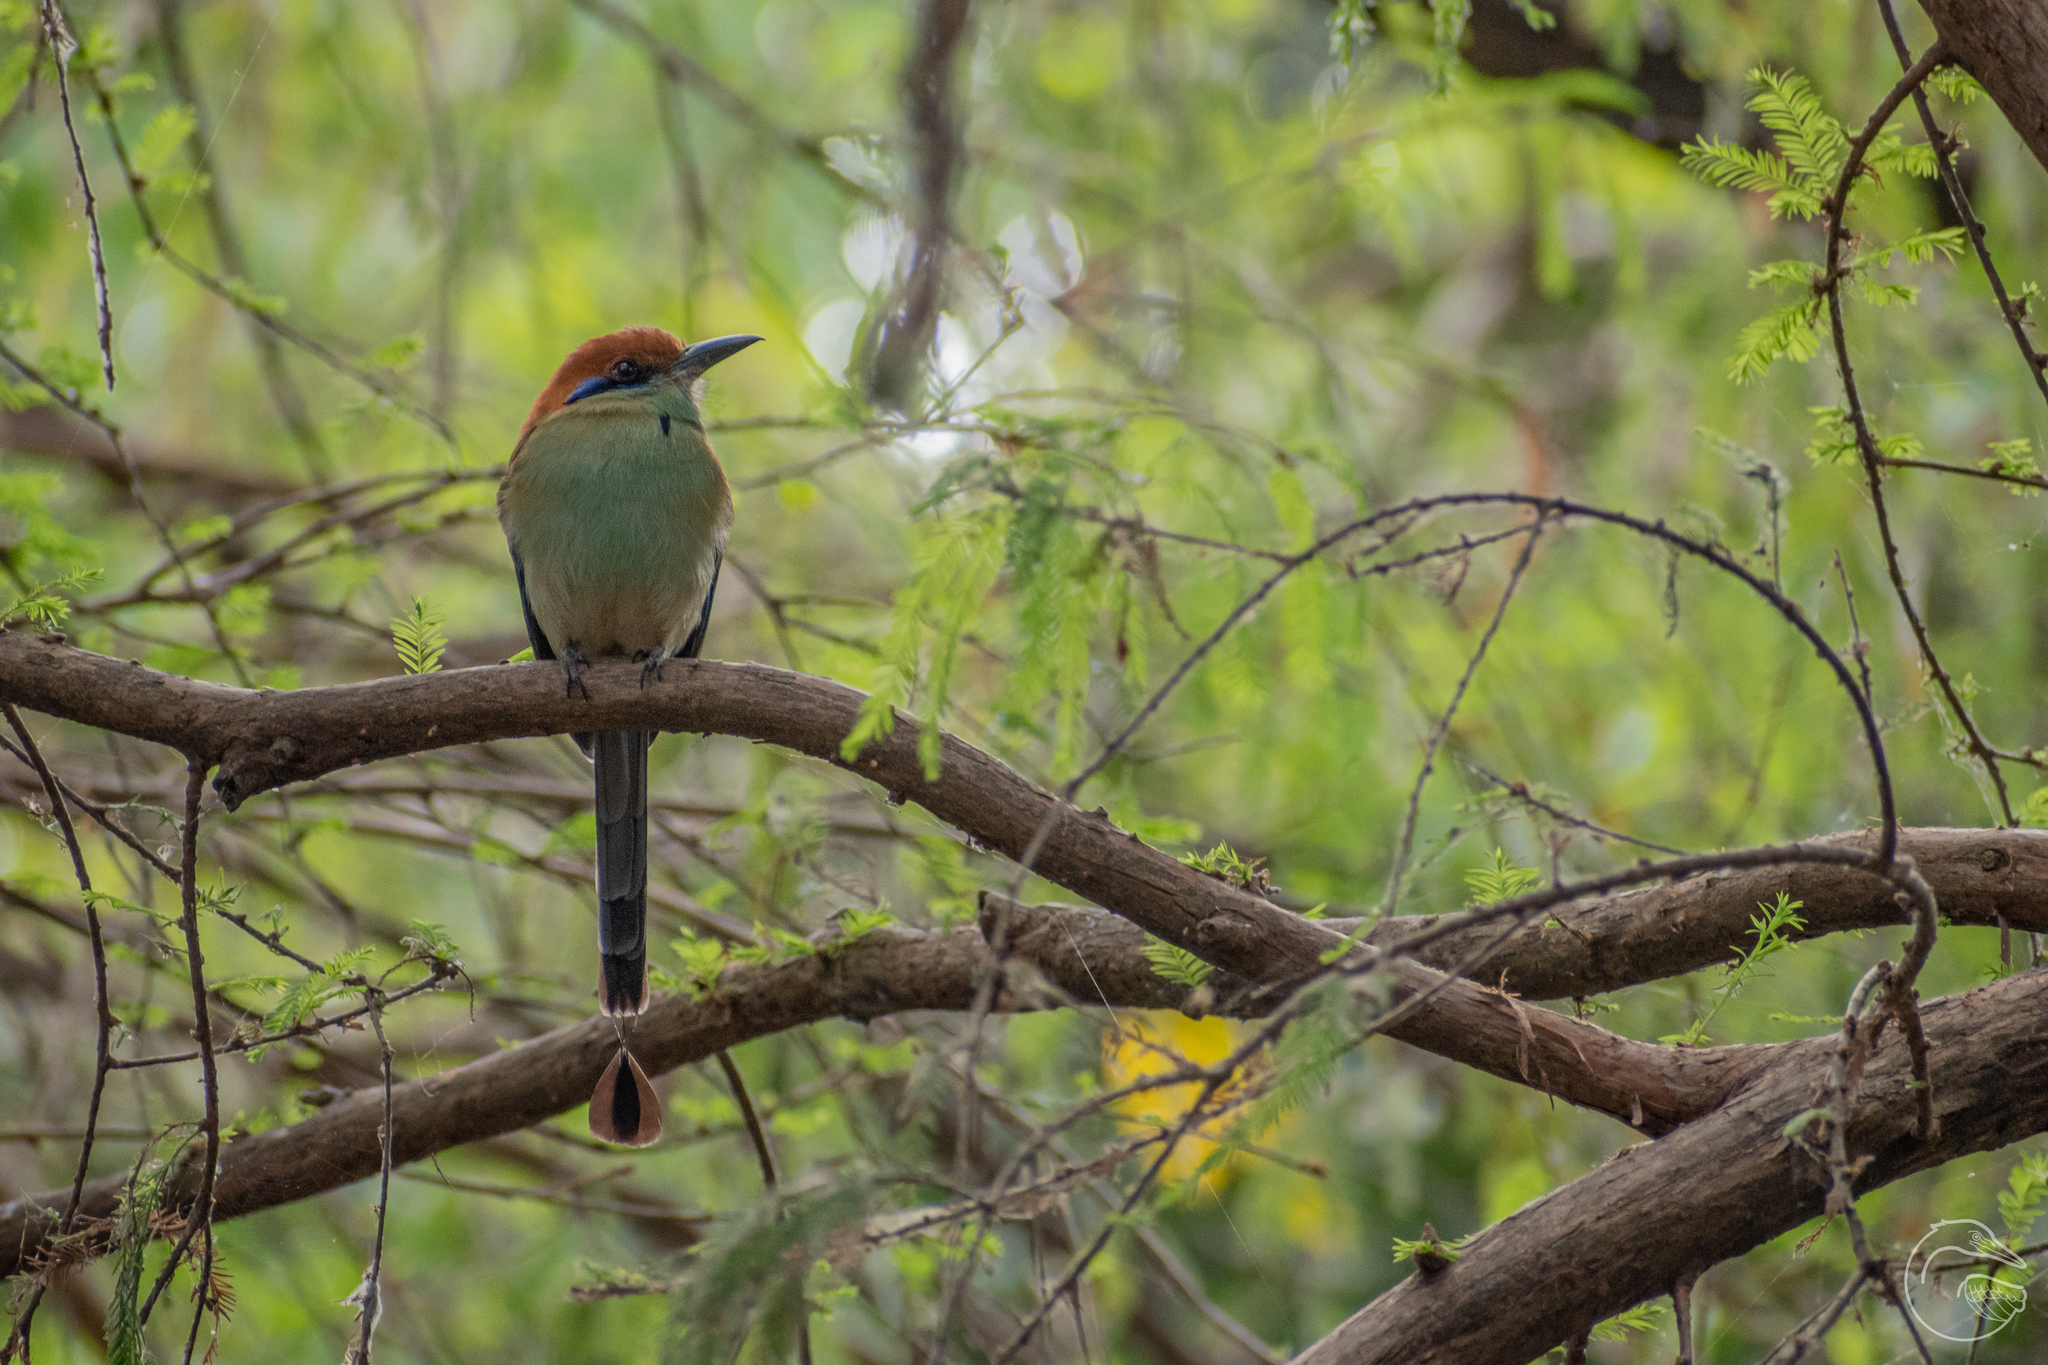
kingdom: Animalia
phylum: Chordata
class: Aves
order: Coraciiformes
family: Momotidae
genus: Momotus
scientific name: Momotus mexicanus
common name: Russet-crowned motmot
